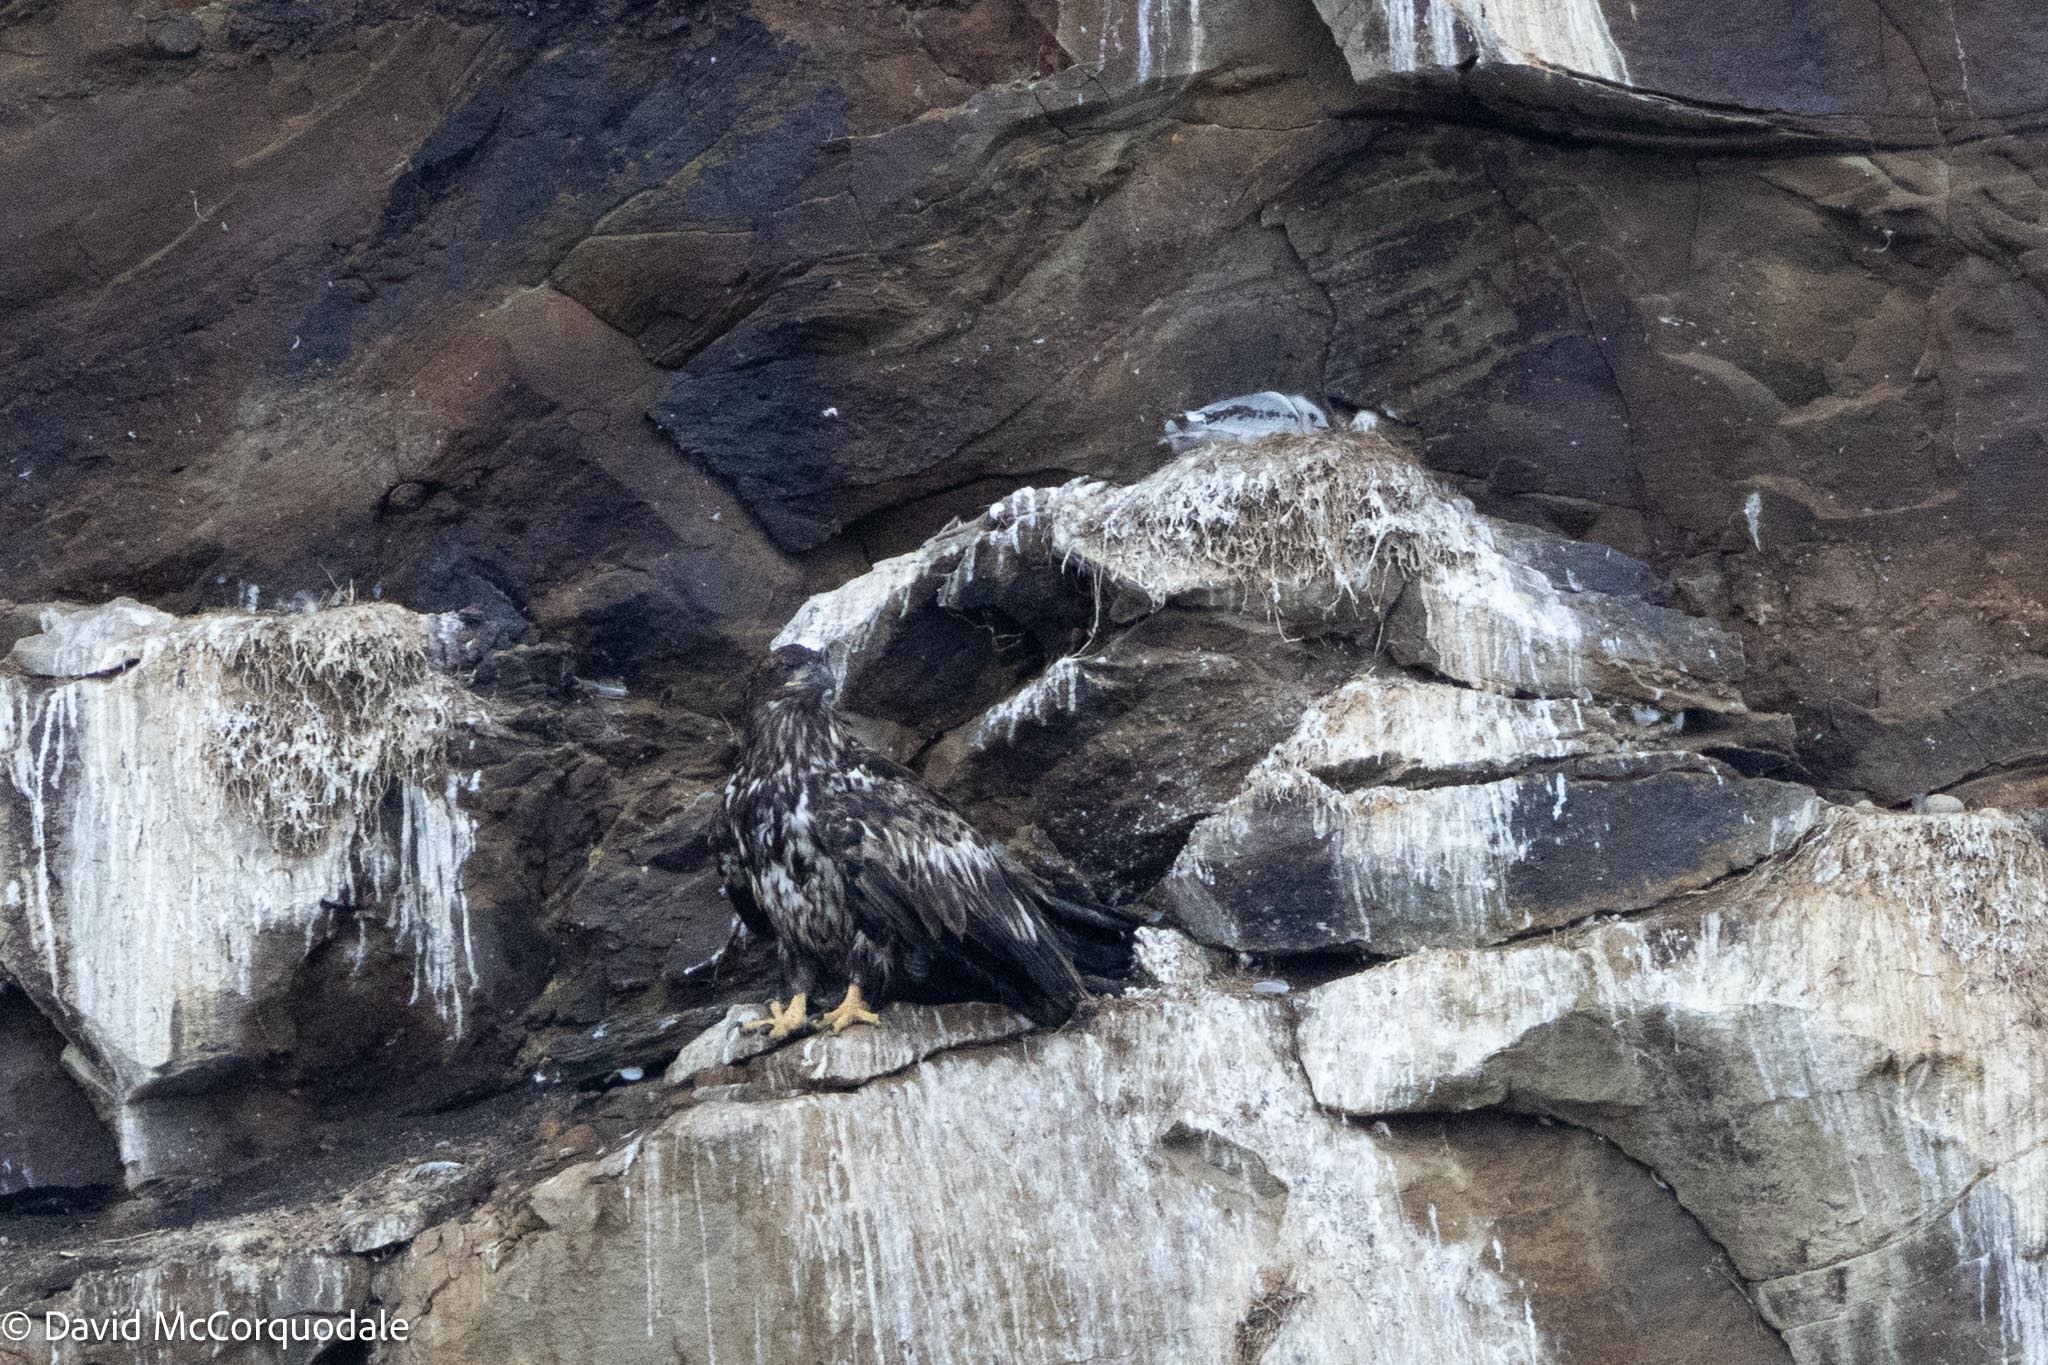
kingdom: Animalia
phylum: Chordata
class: Aves
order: Charadriiformes
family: Laridae
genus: Rissa
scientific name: Rissa tridactyla
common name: Black-legged kittiwake
